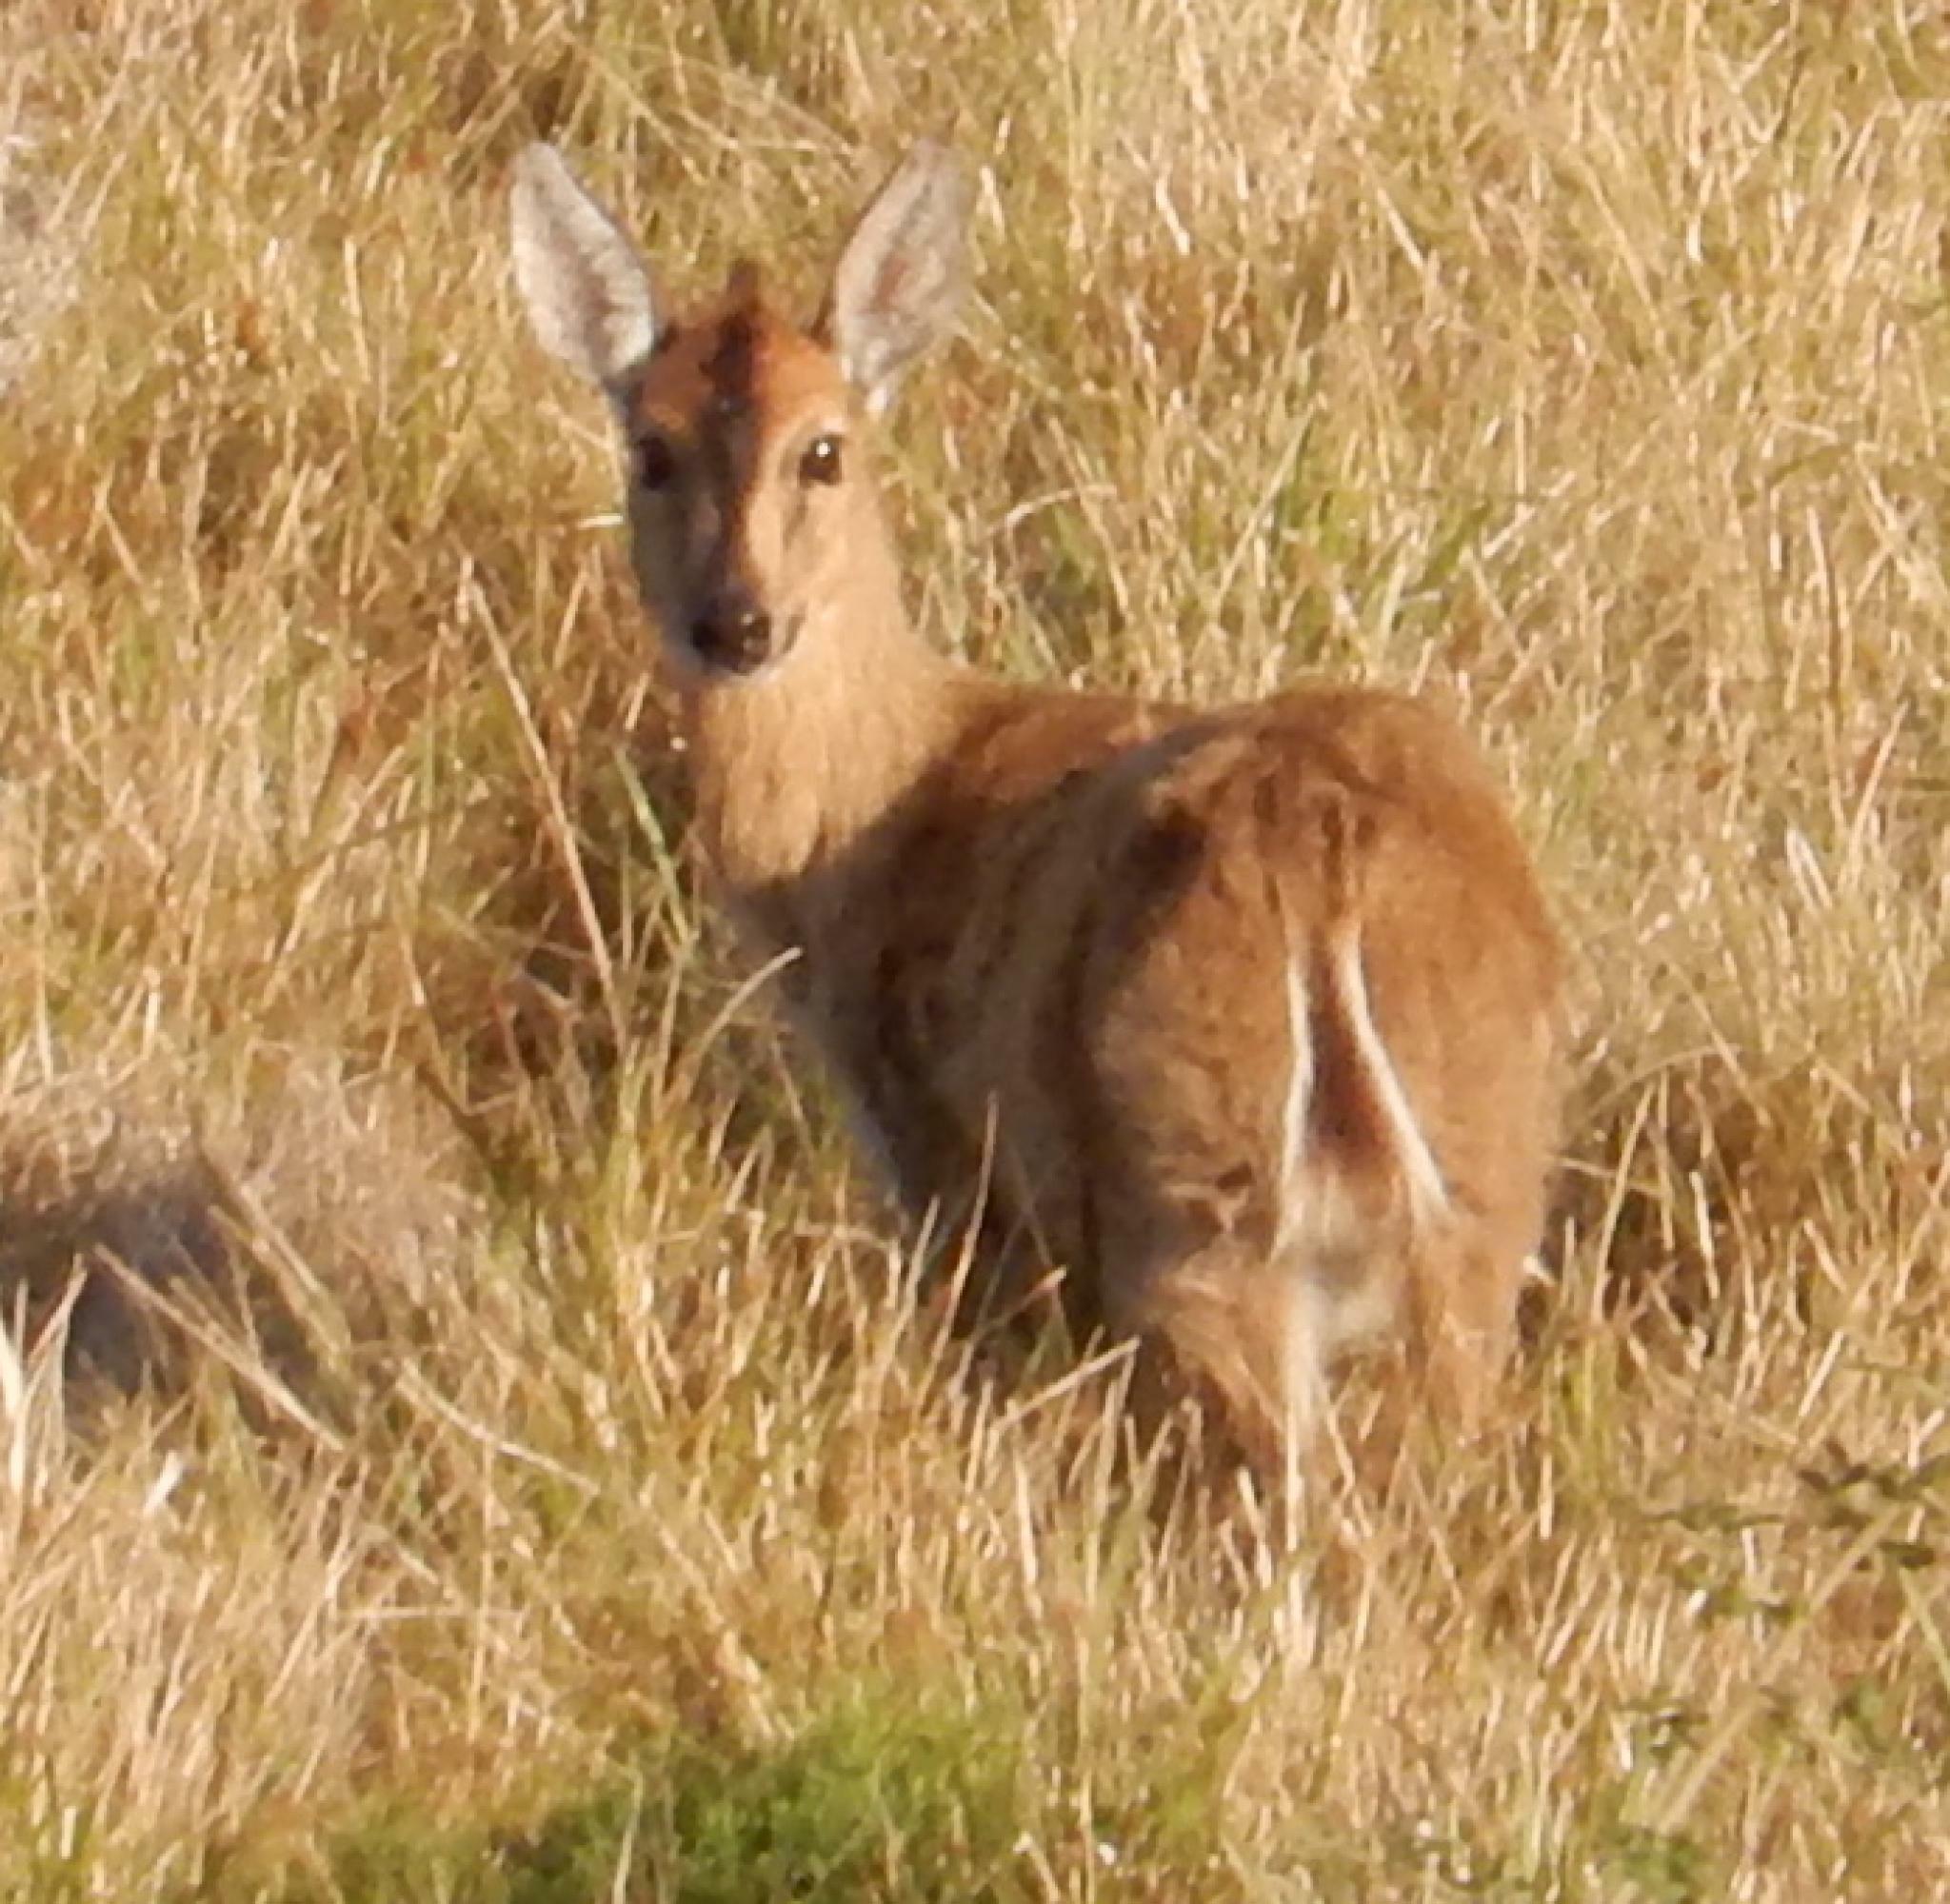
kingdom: Animalia
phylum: Chordata
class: Mammalia
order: Artiodactyla
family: Bovidae
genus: Sylvicapra
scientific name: Sylvicapra grimmia
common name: Bush duiker
